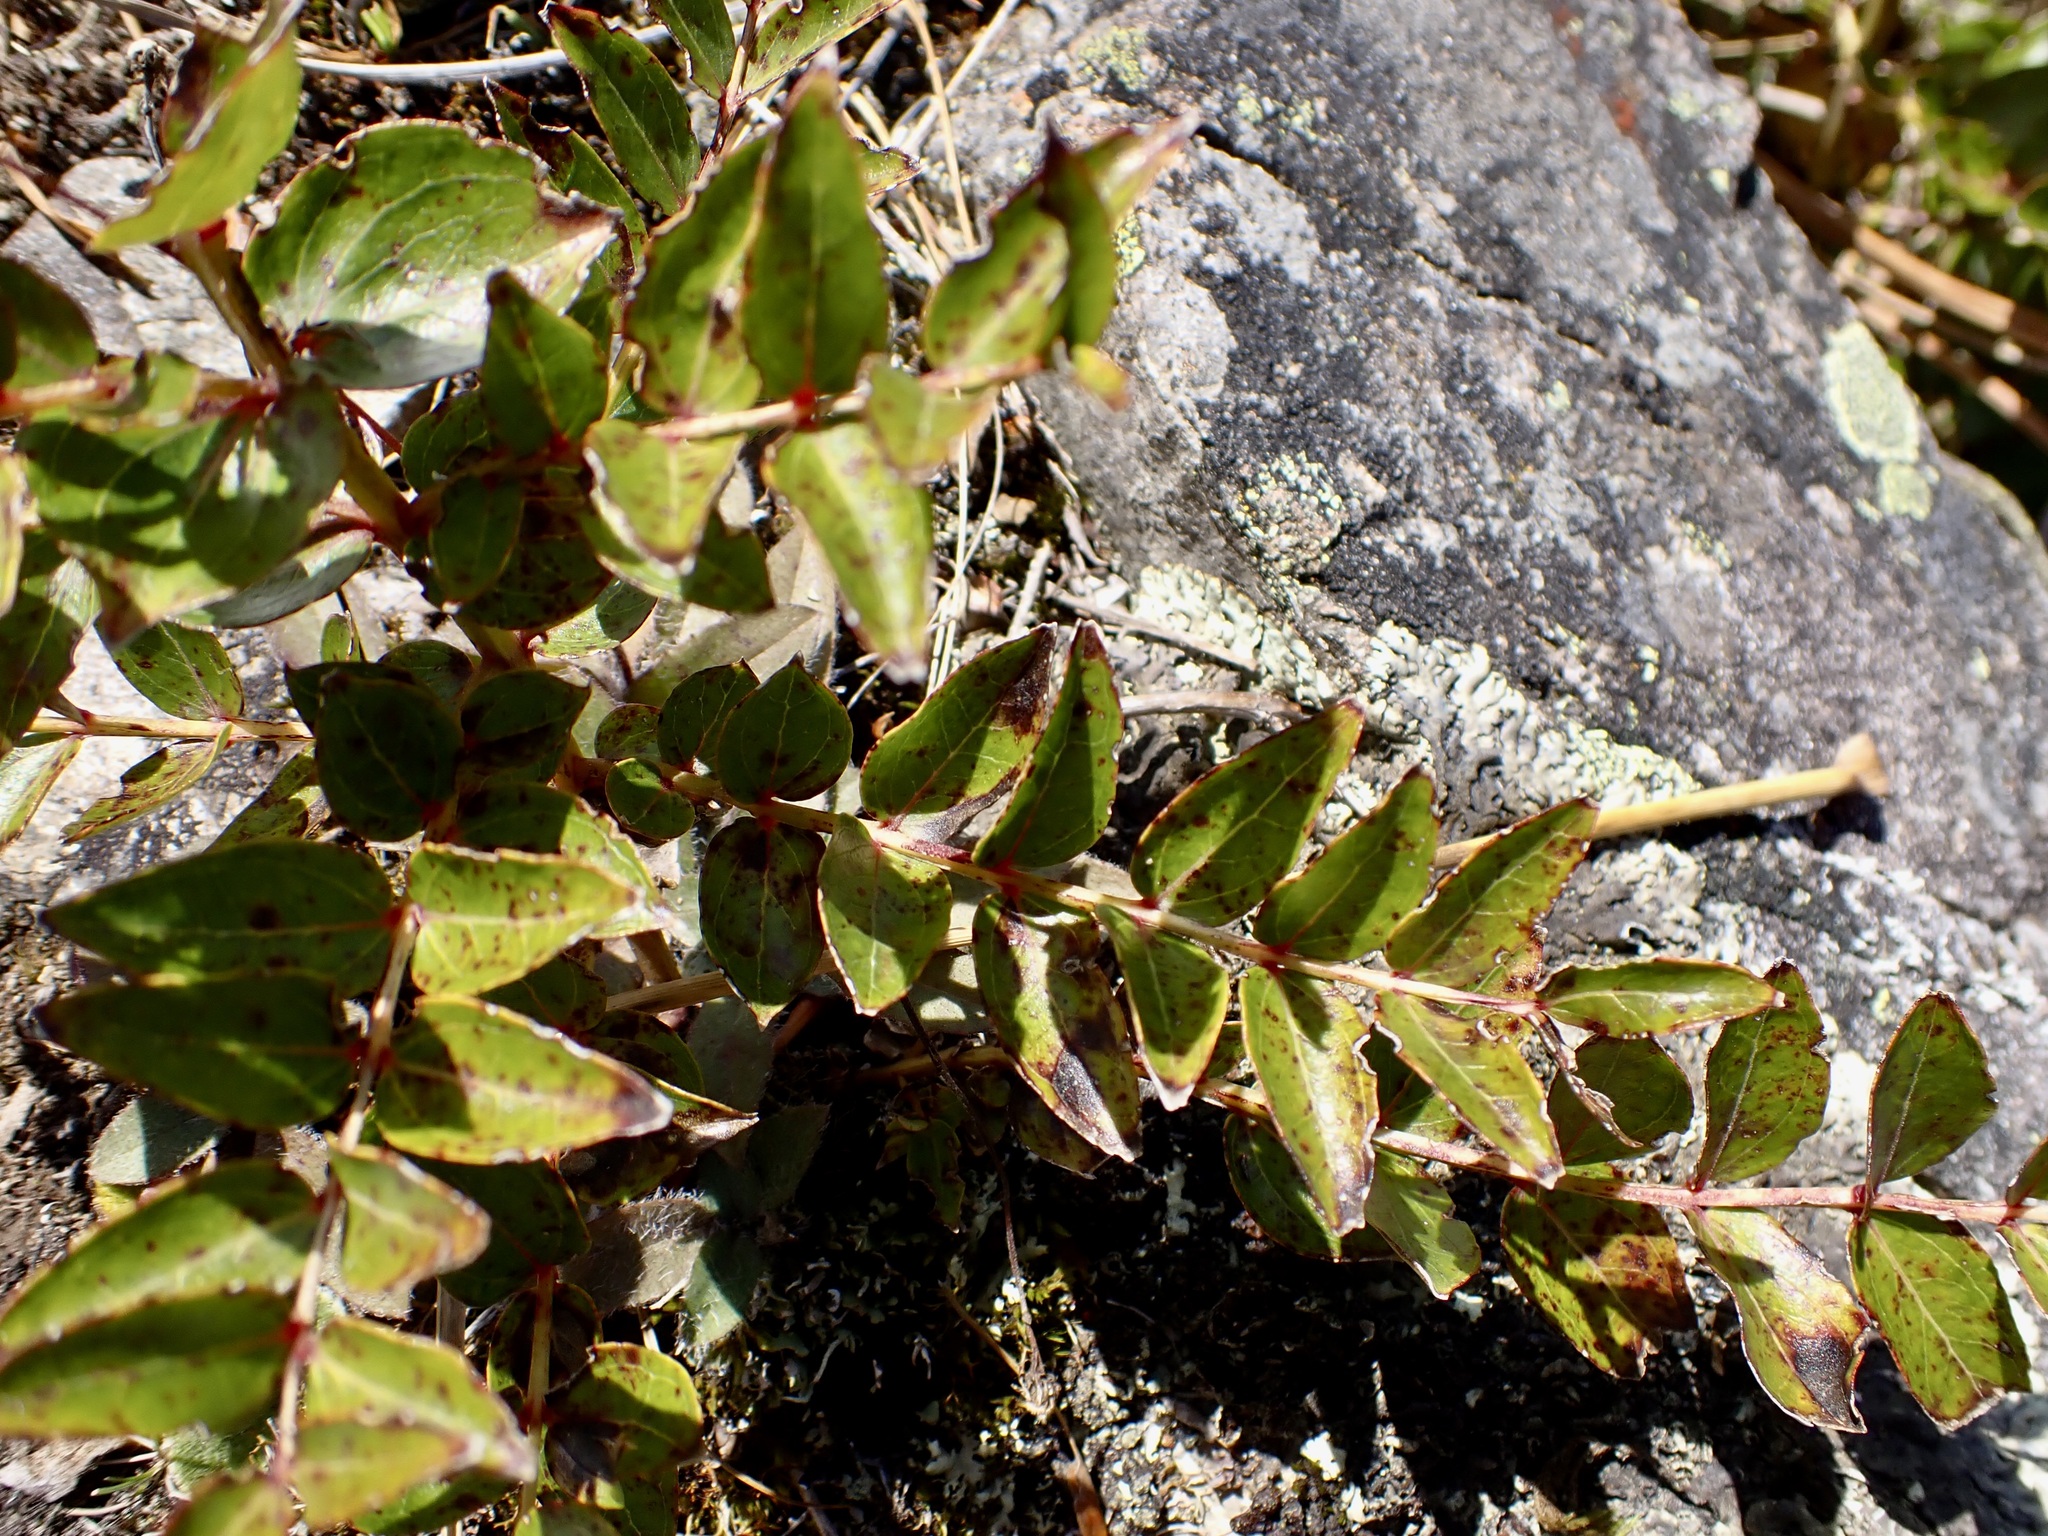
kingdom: Plantae
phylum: Tracheophyta
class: Magnoliopsida
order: Cucurbitales
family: Coriariaceae
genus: Coriaria
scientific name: Coriaria sarmentosa
